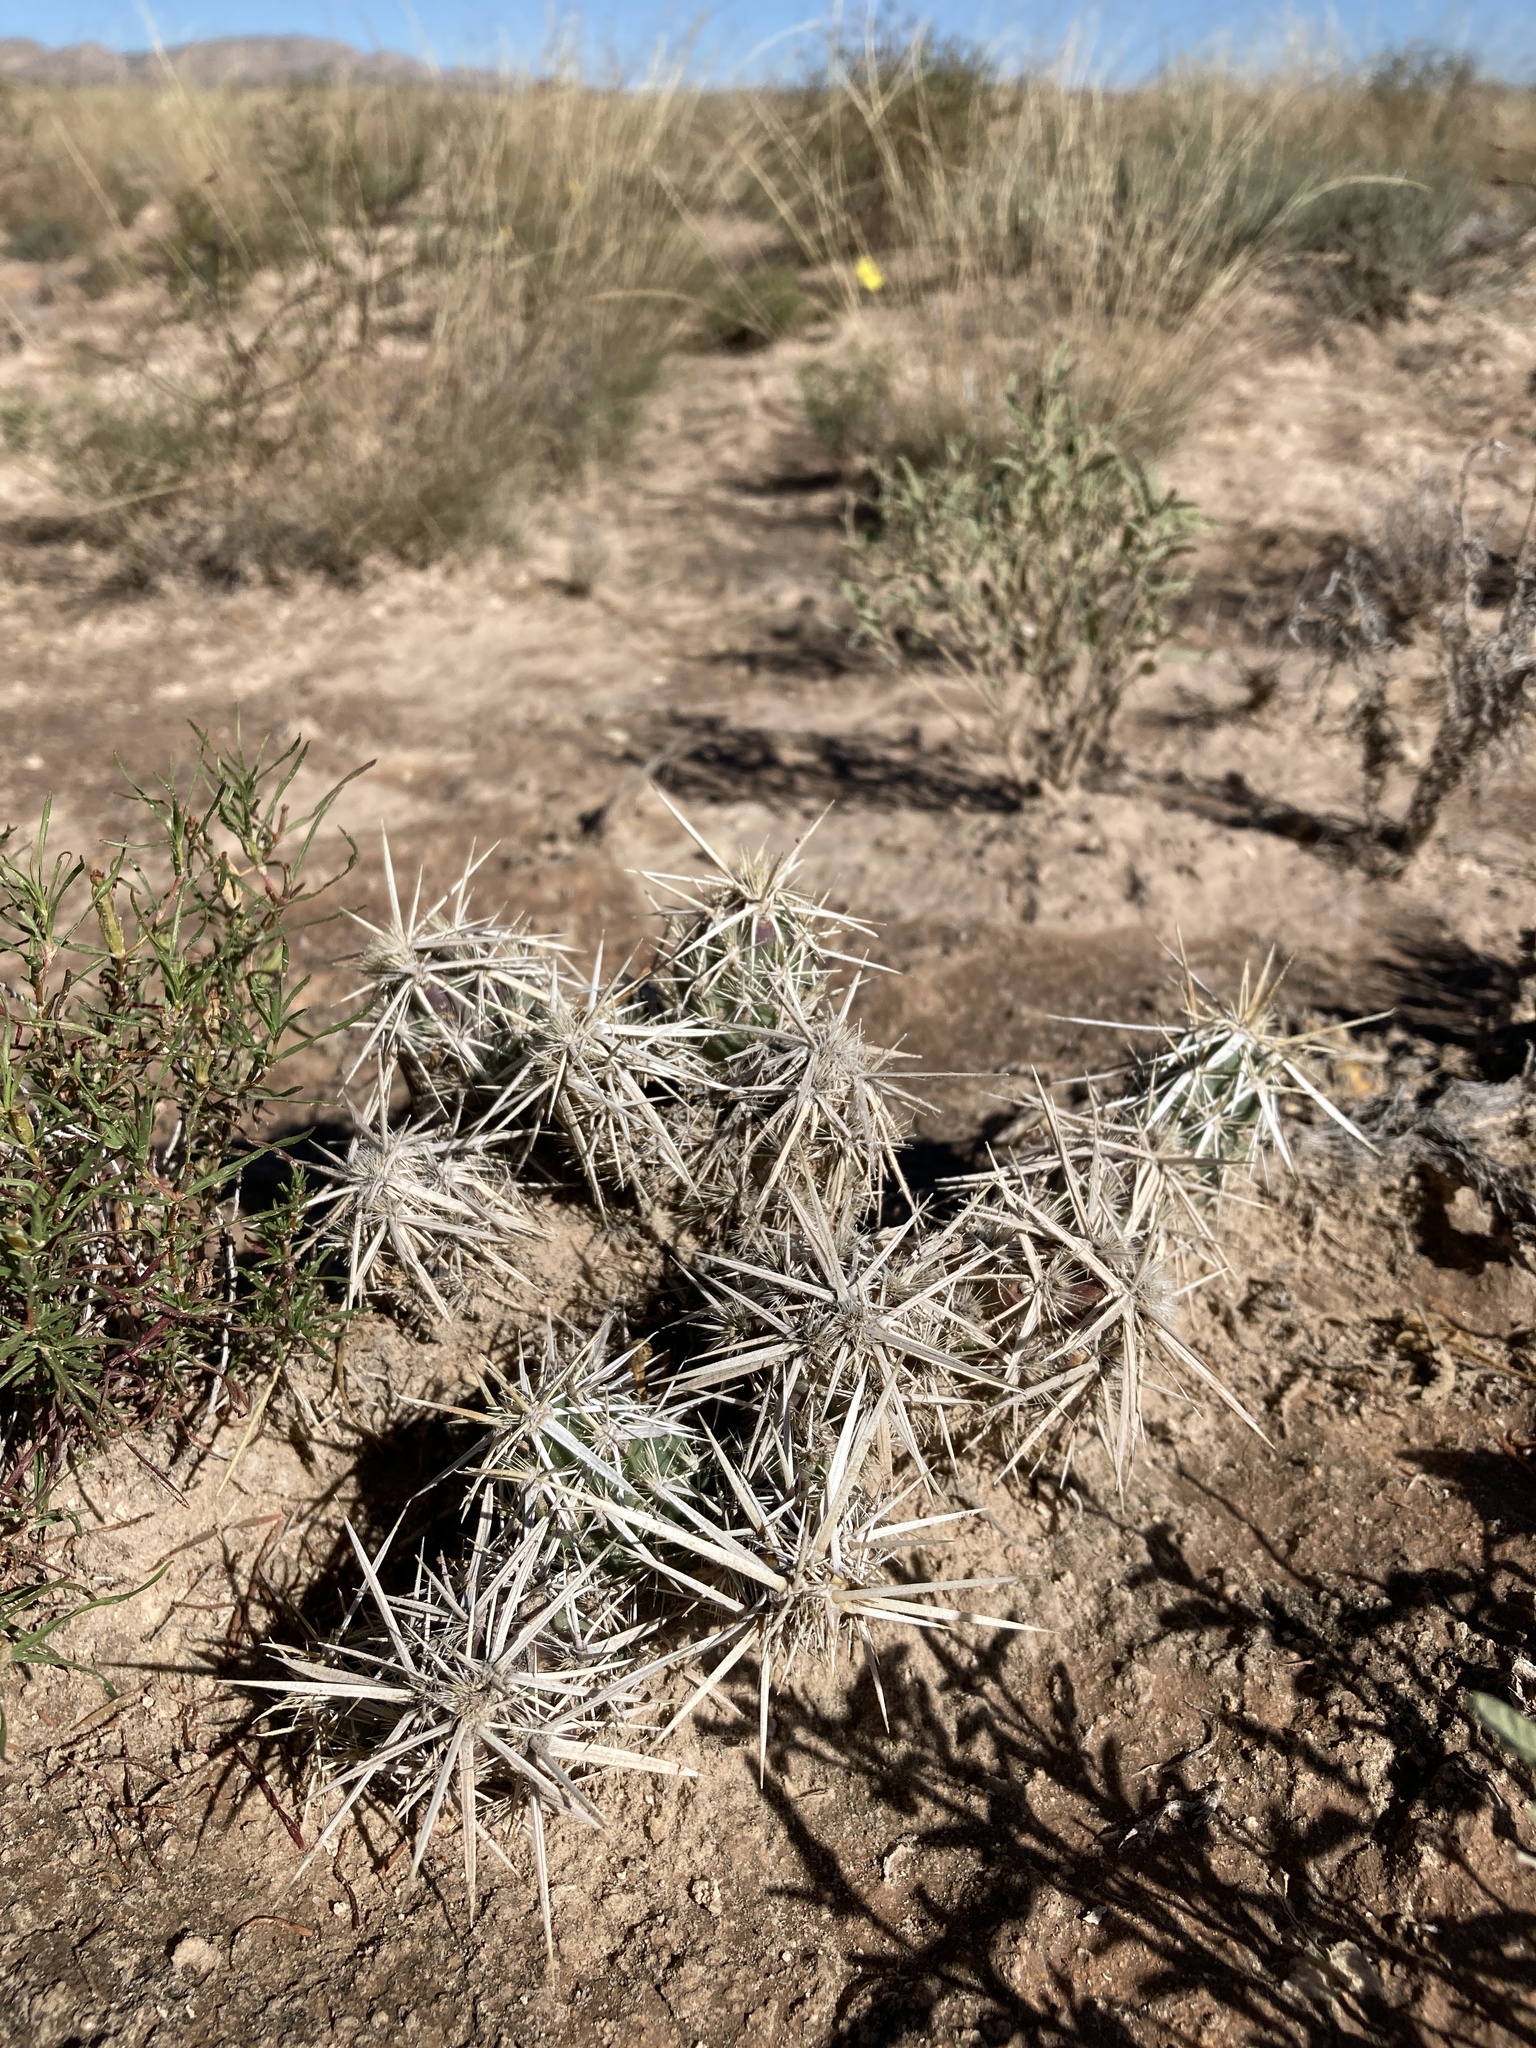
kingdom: Plantae
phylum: Tracheophyta
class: Magnoliopsida
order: Caryophyllales
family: Cactaceae
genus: Grusonia
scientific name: Grusonia clavata
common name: Club cholla
